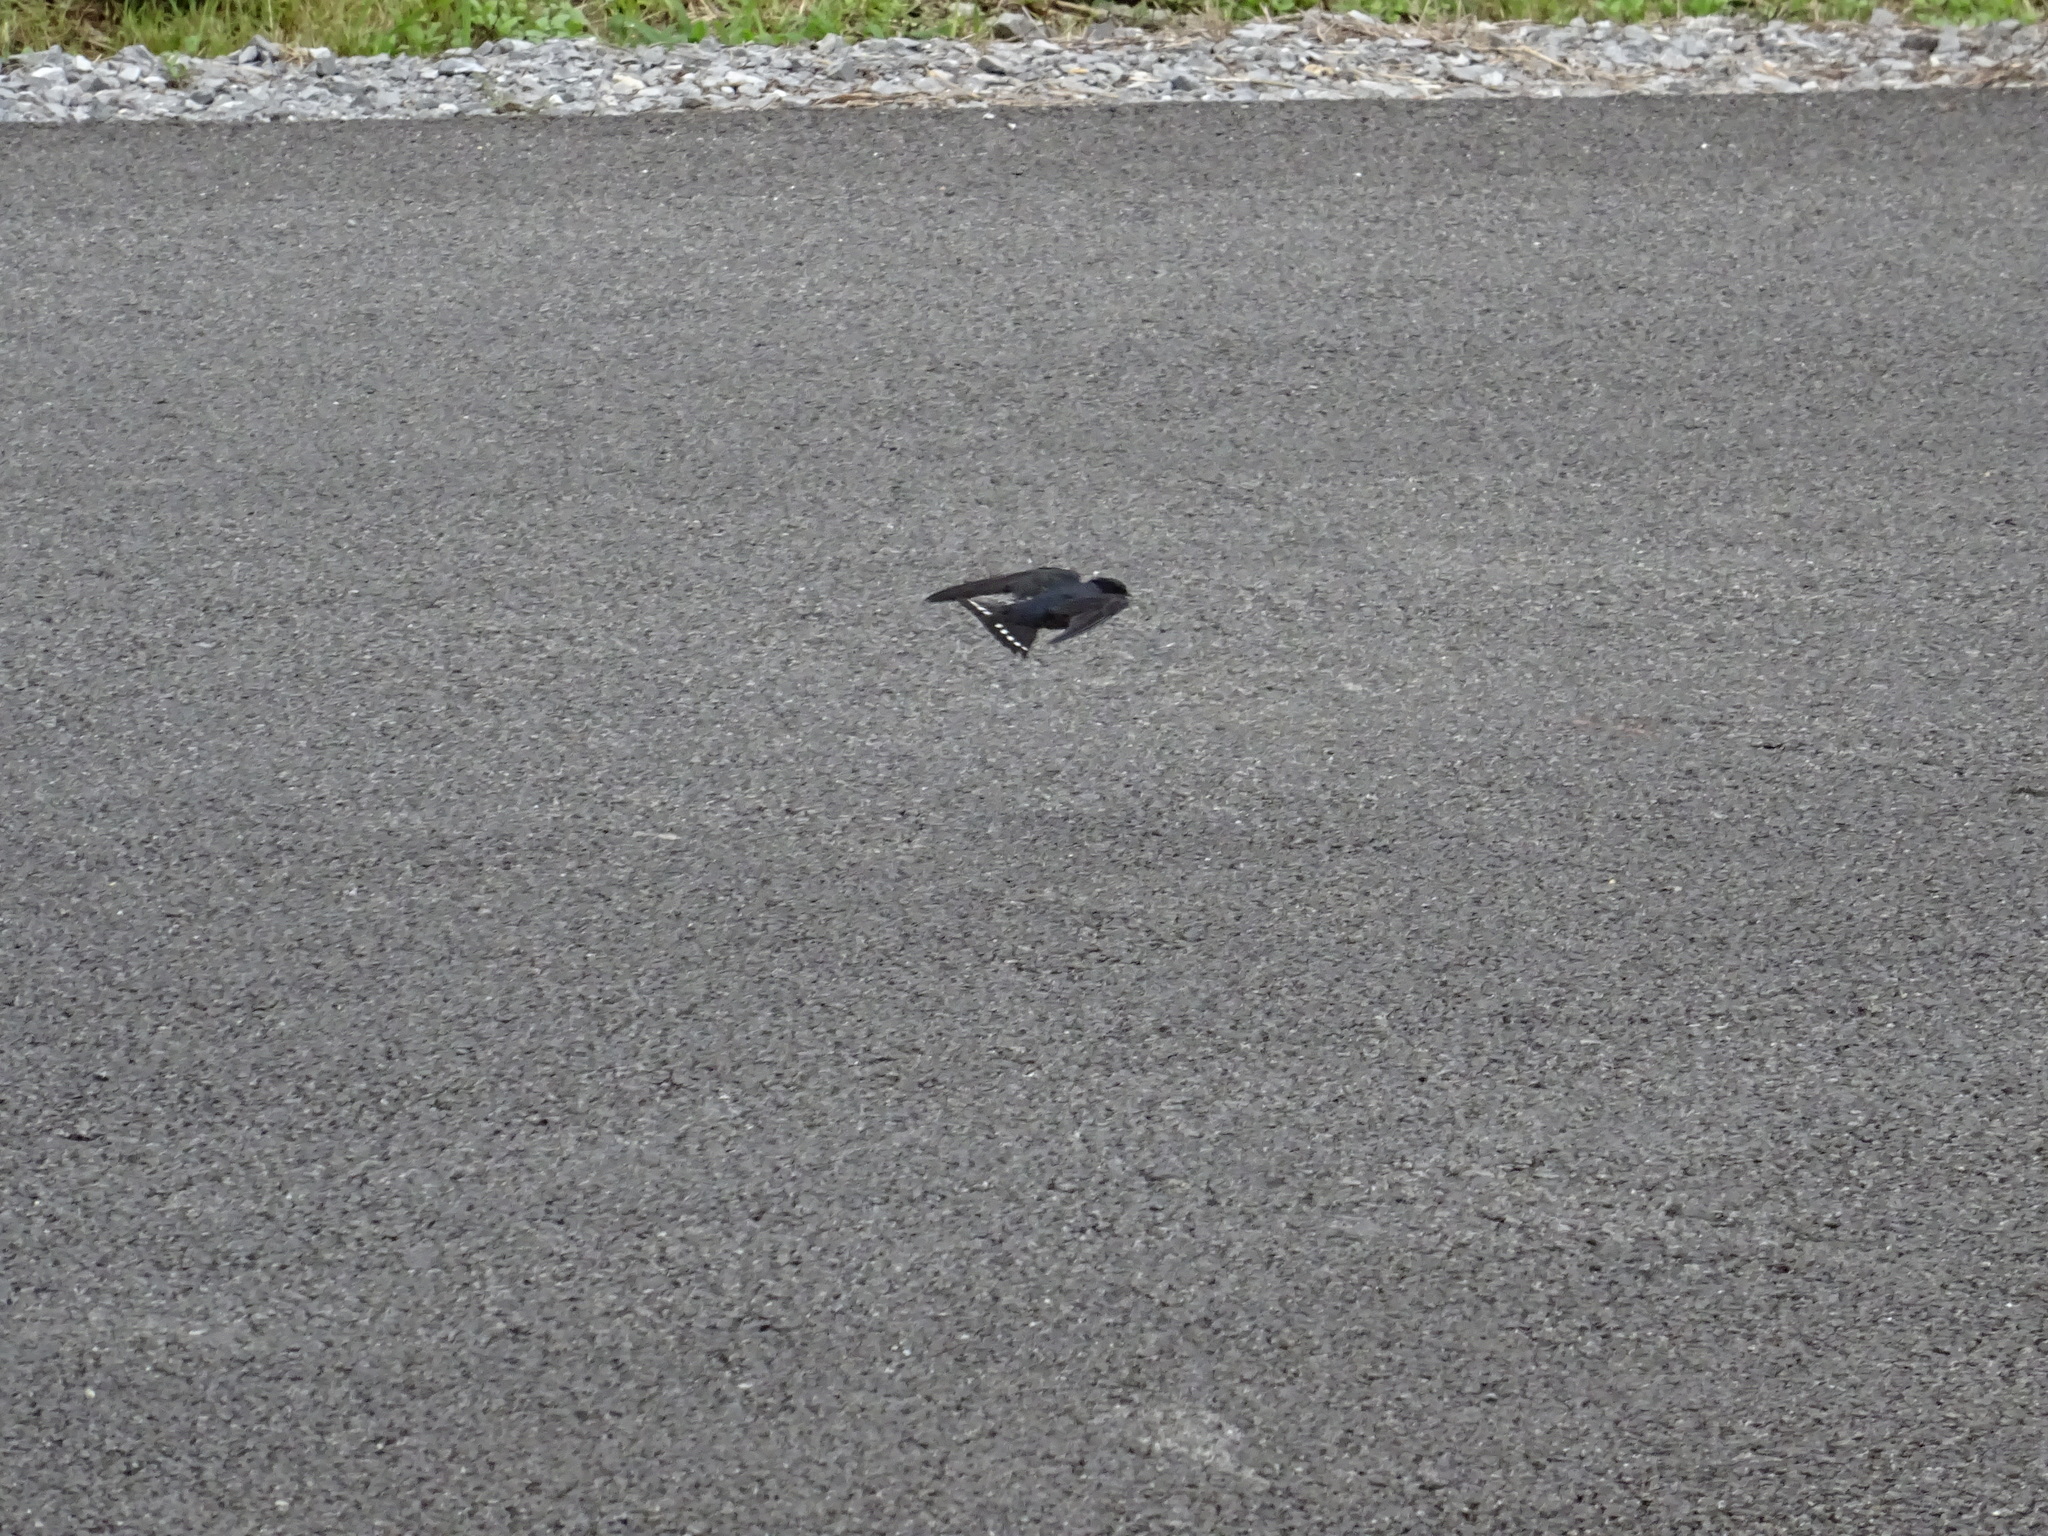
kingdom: Animalia
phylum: Chordata
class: Aves
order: Passeriformes
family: Hirundinidae
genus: Hirundo
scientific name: Hirundo tahitica
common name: Pacific swallow
